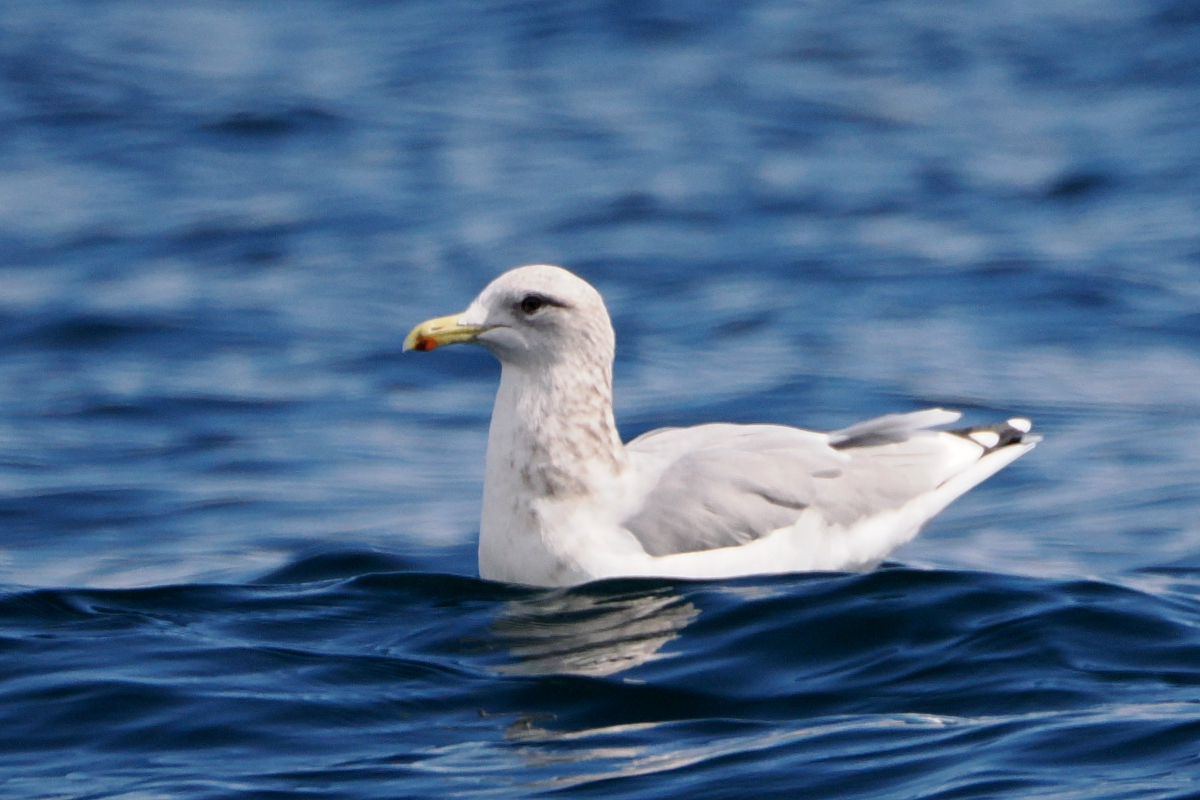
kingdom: Animalia
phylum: Chordata
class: Aves
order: Charadriiformes
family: Laridae
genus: Larus
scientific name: Larus californicus
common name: California gull
